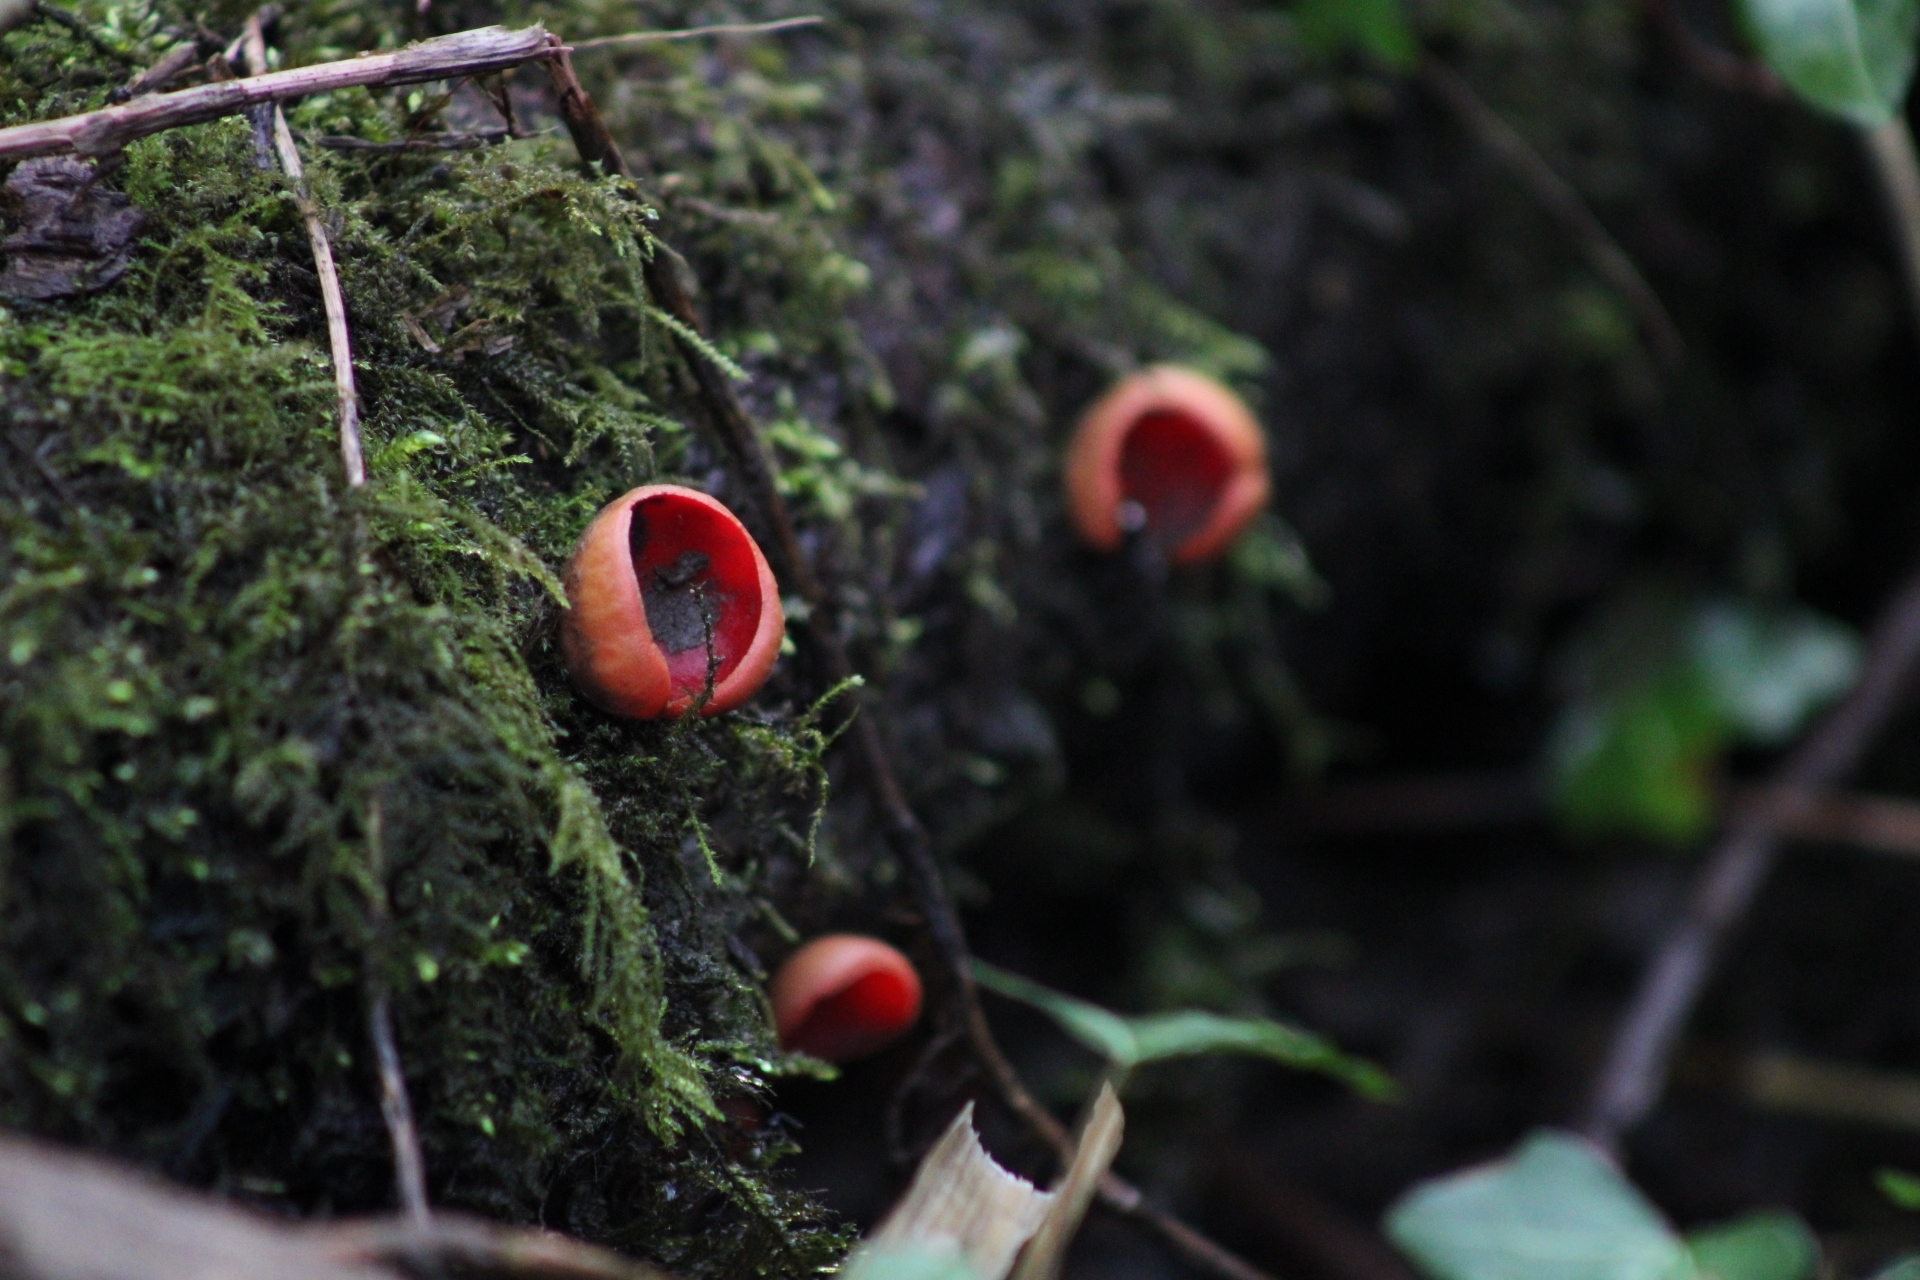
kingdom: Fungi
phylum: Ascomycota
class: Pezizomycetes
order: Pezizales
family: Sarcoscyphaceae
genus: Sarcoscypha
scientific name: Sarcoscypha
